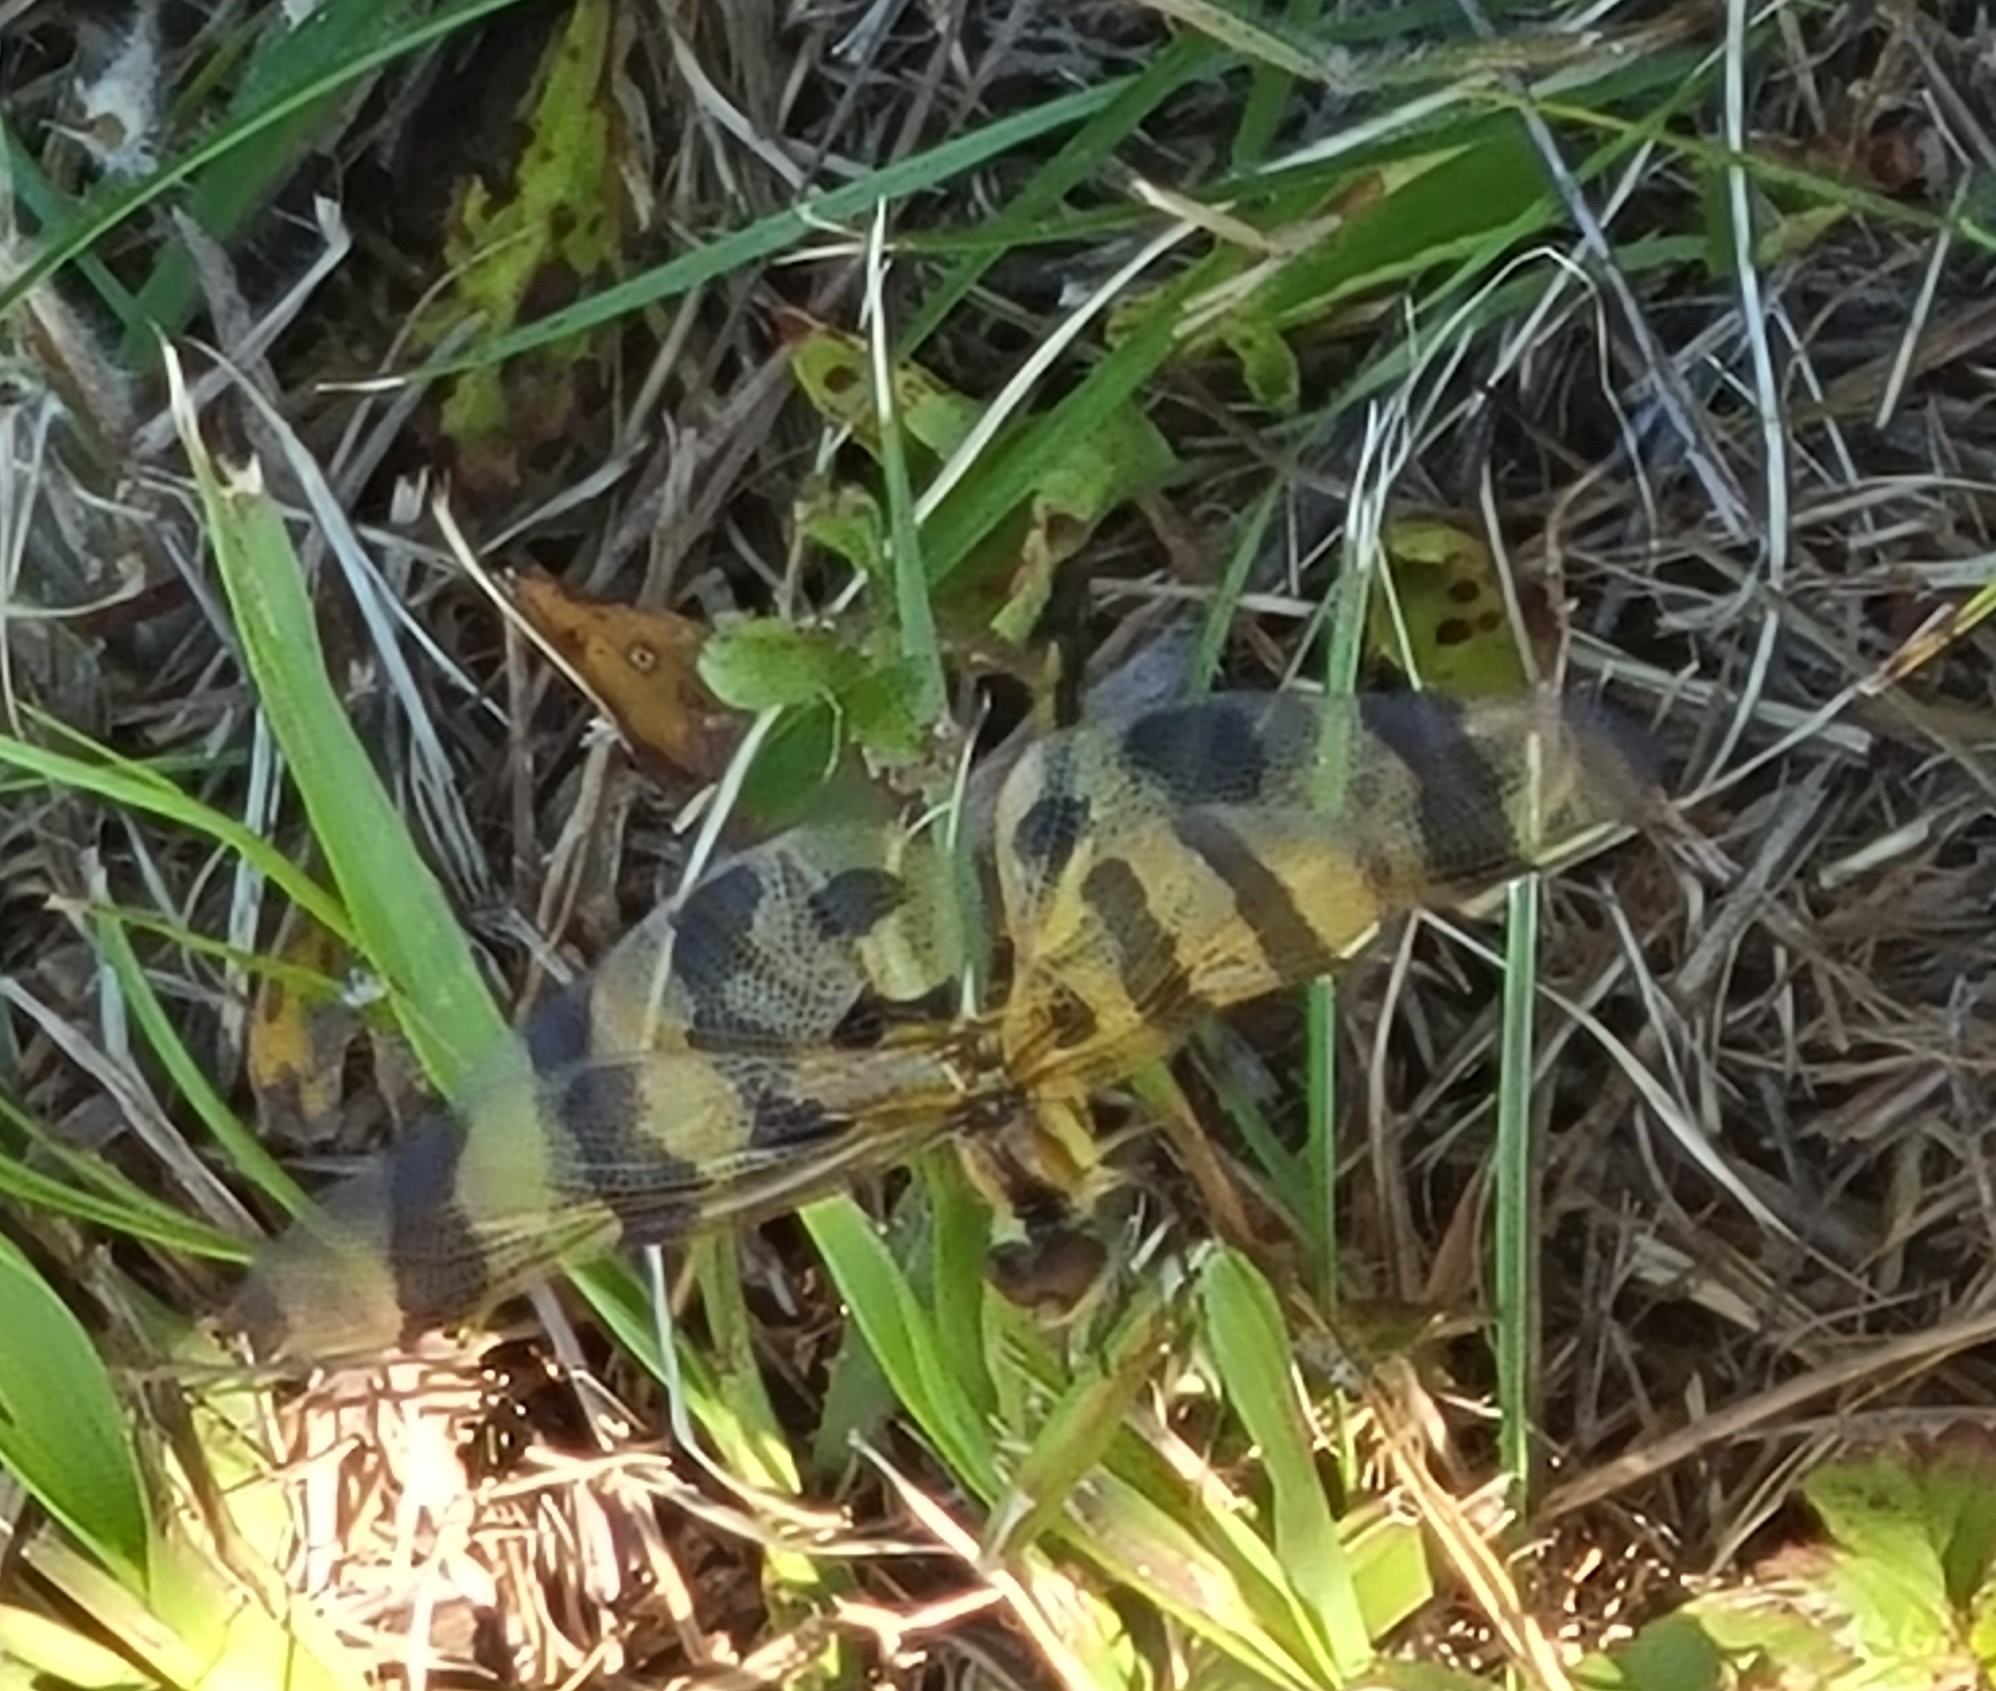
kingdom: Animalia
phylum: Arthropoda
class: Insecta
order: Odonata
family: Libellulidae
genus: Celithemis
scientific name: Celithemis eponina
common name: Halloween pennant
